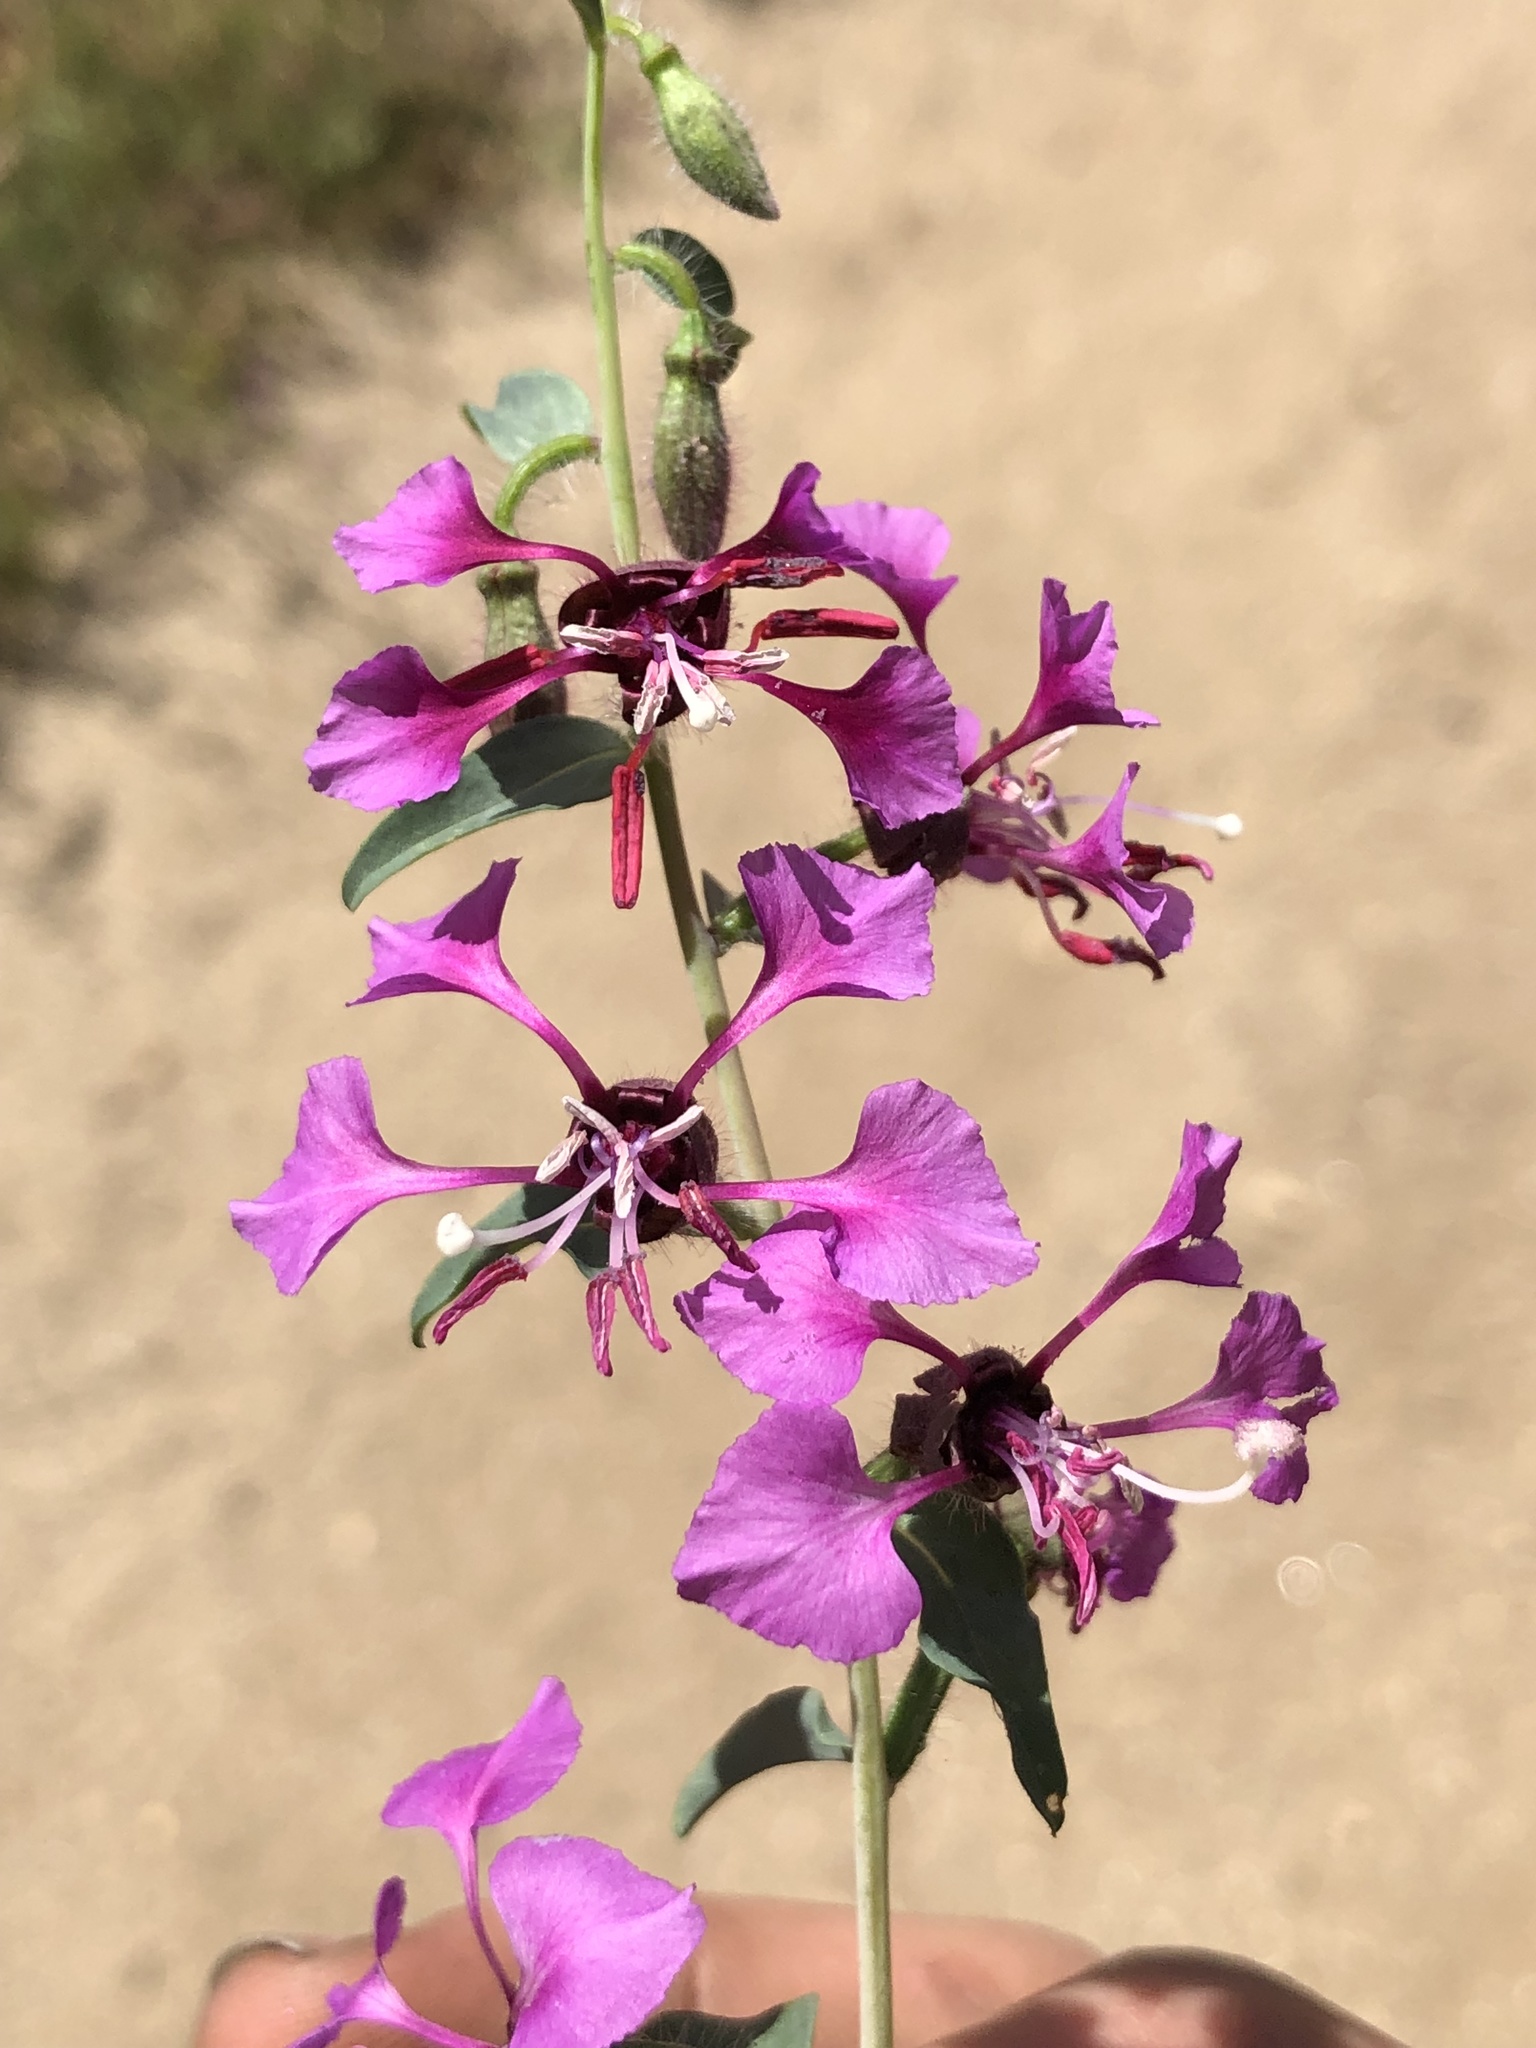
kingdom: Plantae
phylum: Tracheophyta
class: Magnoliopsida
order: Myrtales
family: Onagraceae
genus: Clarkia
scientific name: Clarkia unguiculata
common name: Clarkia
